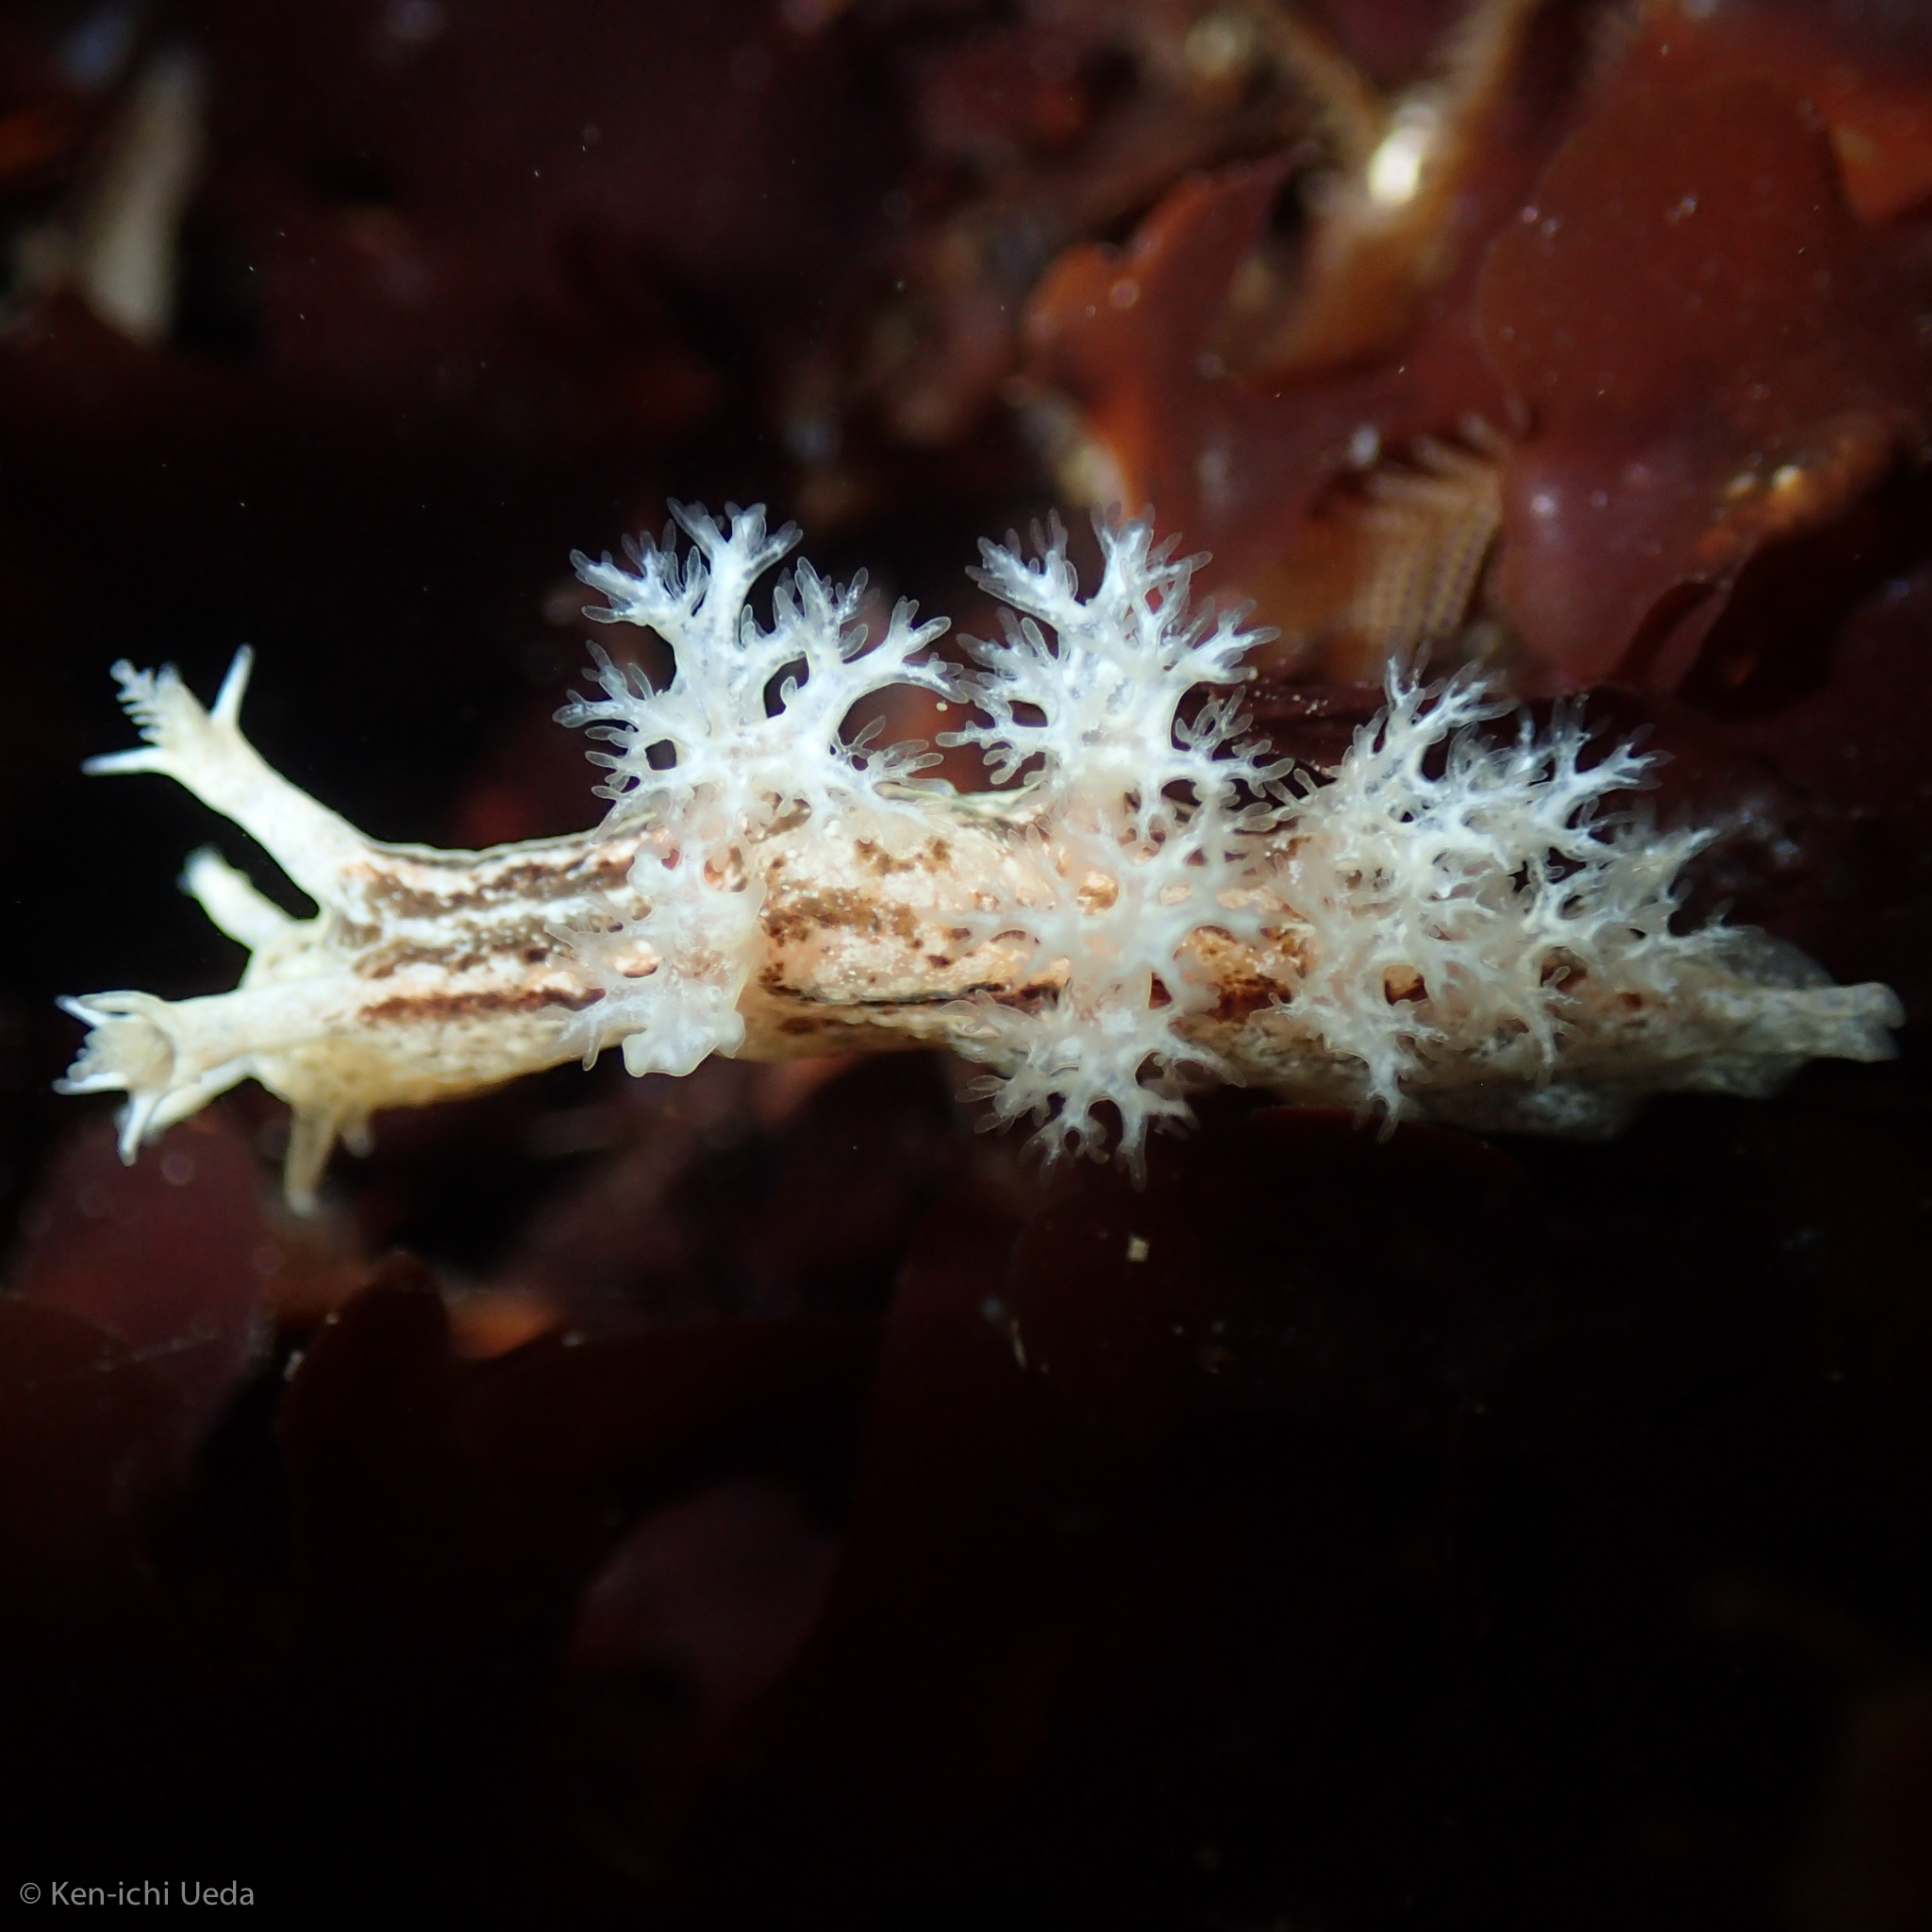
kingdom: Animalia
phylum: Mollusca
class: Gastropoda
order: Nudibranchia
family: Dendronotidae
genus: Dendronotus
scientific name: Dendronotus subramosus
